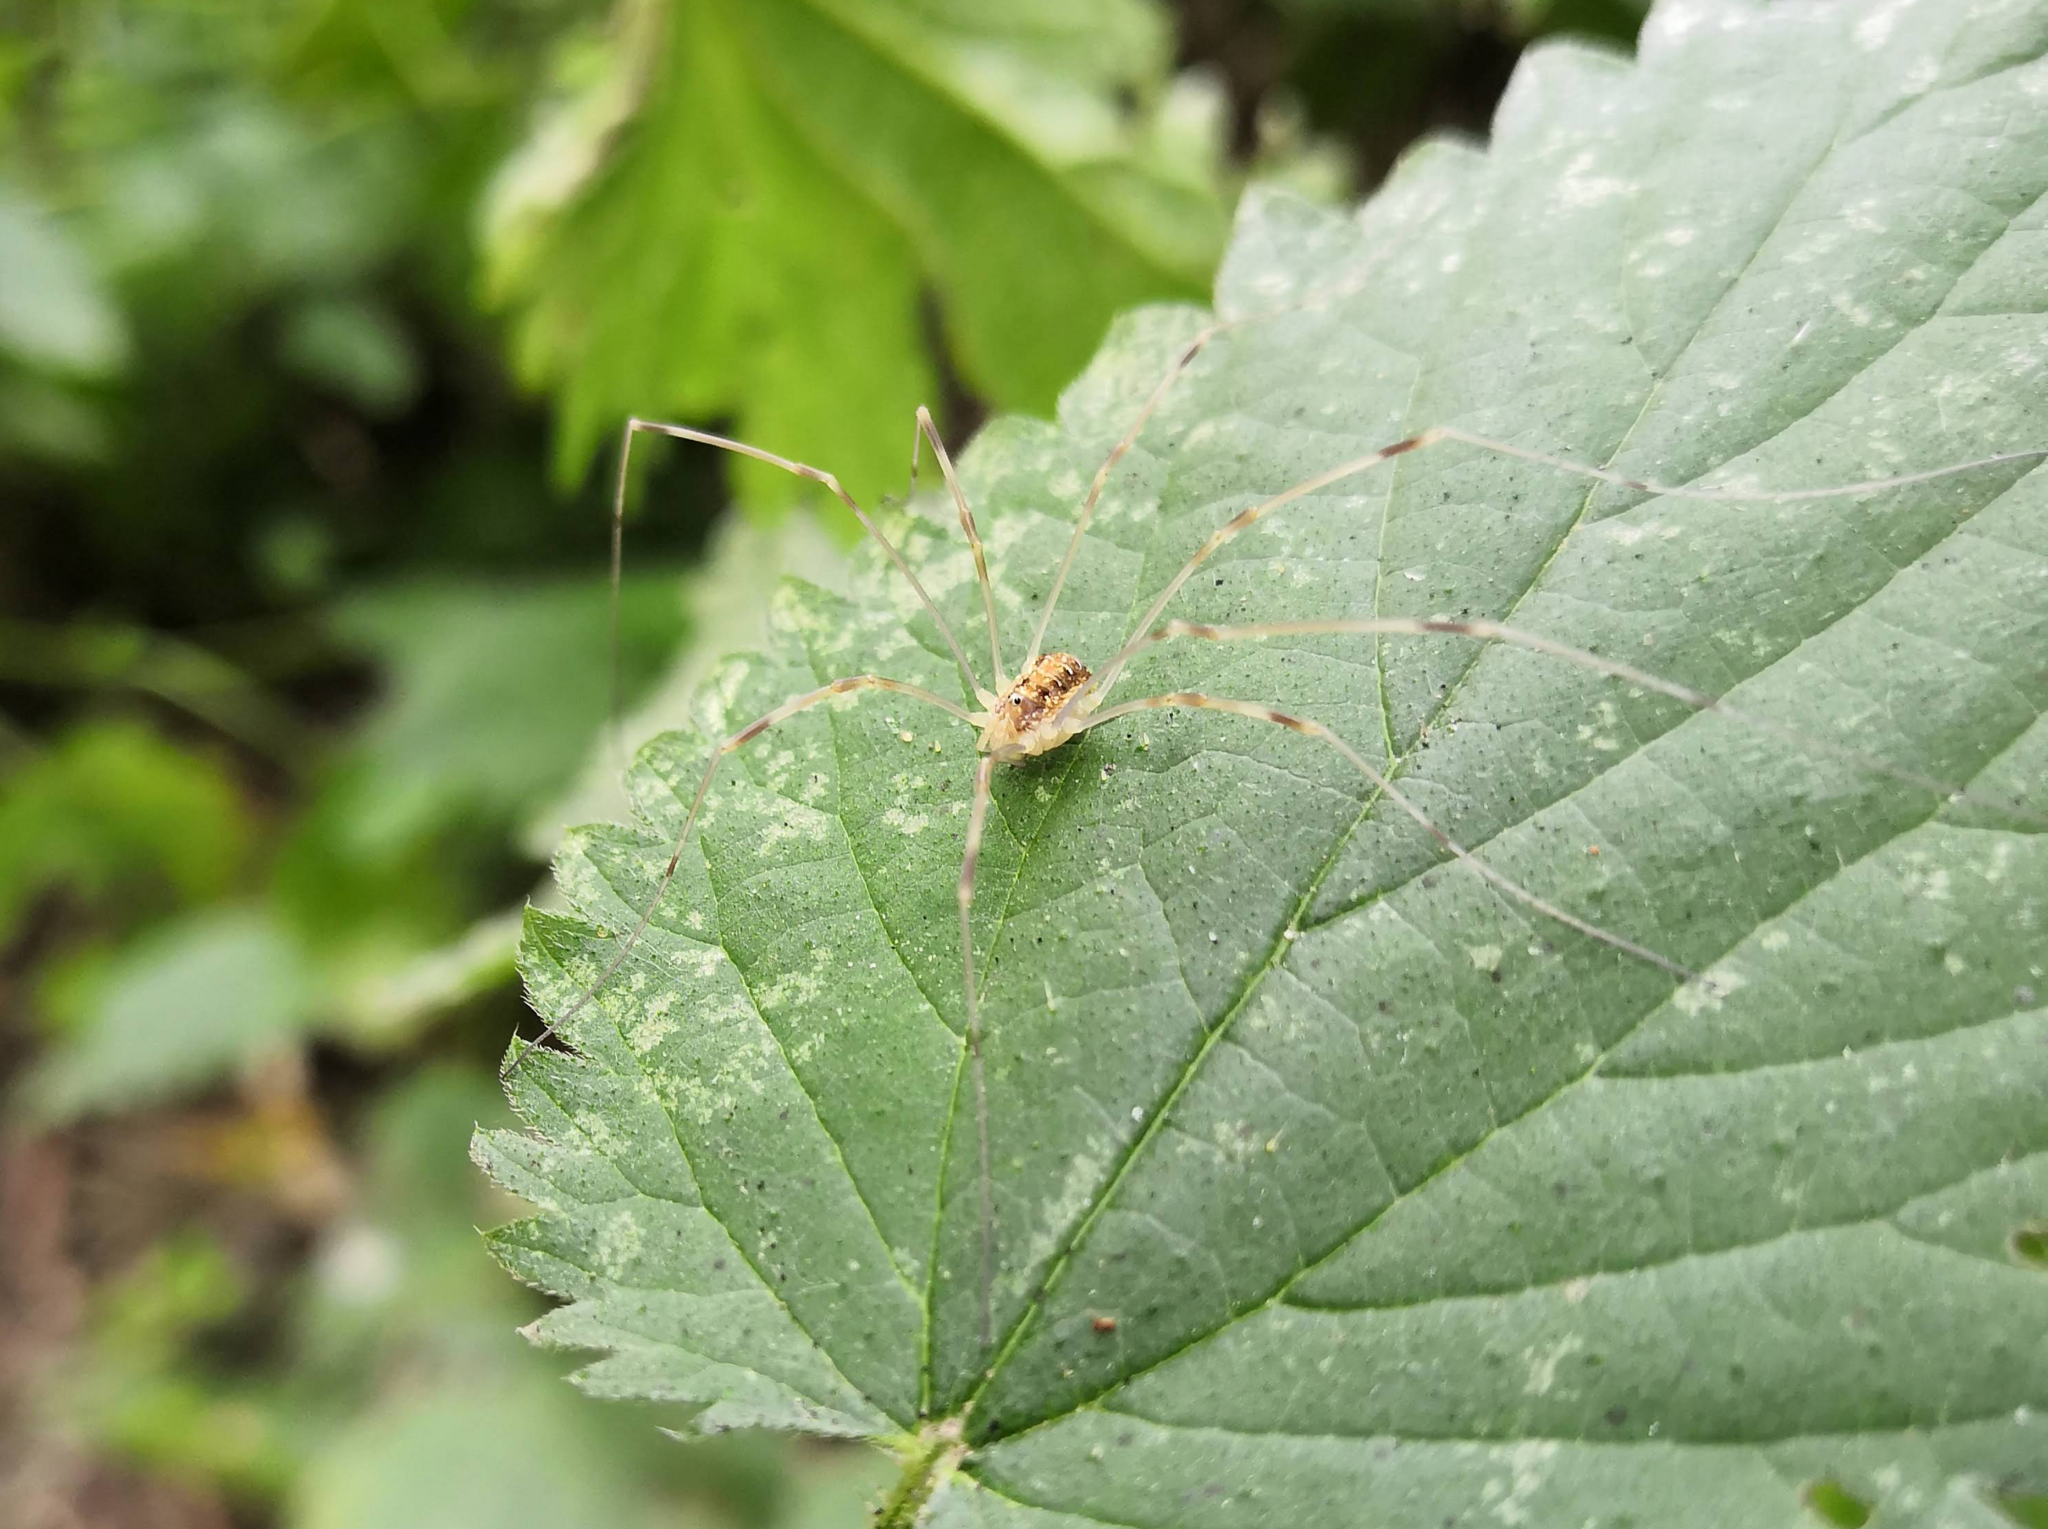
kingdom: Animalia
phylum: Arthropoda
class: Arachnida
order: Opiliones
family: Phalangiidae
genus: Opilio
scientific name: Opilio canestrinii
